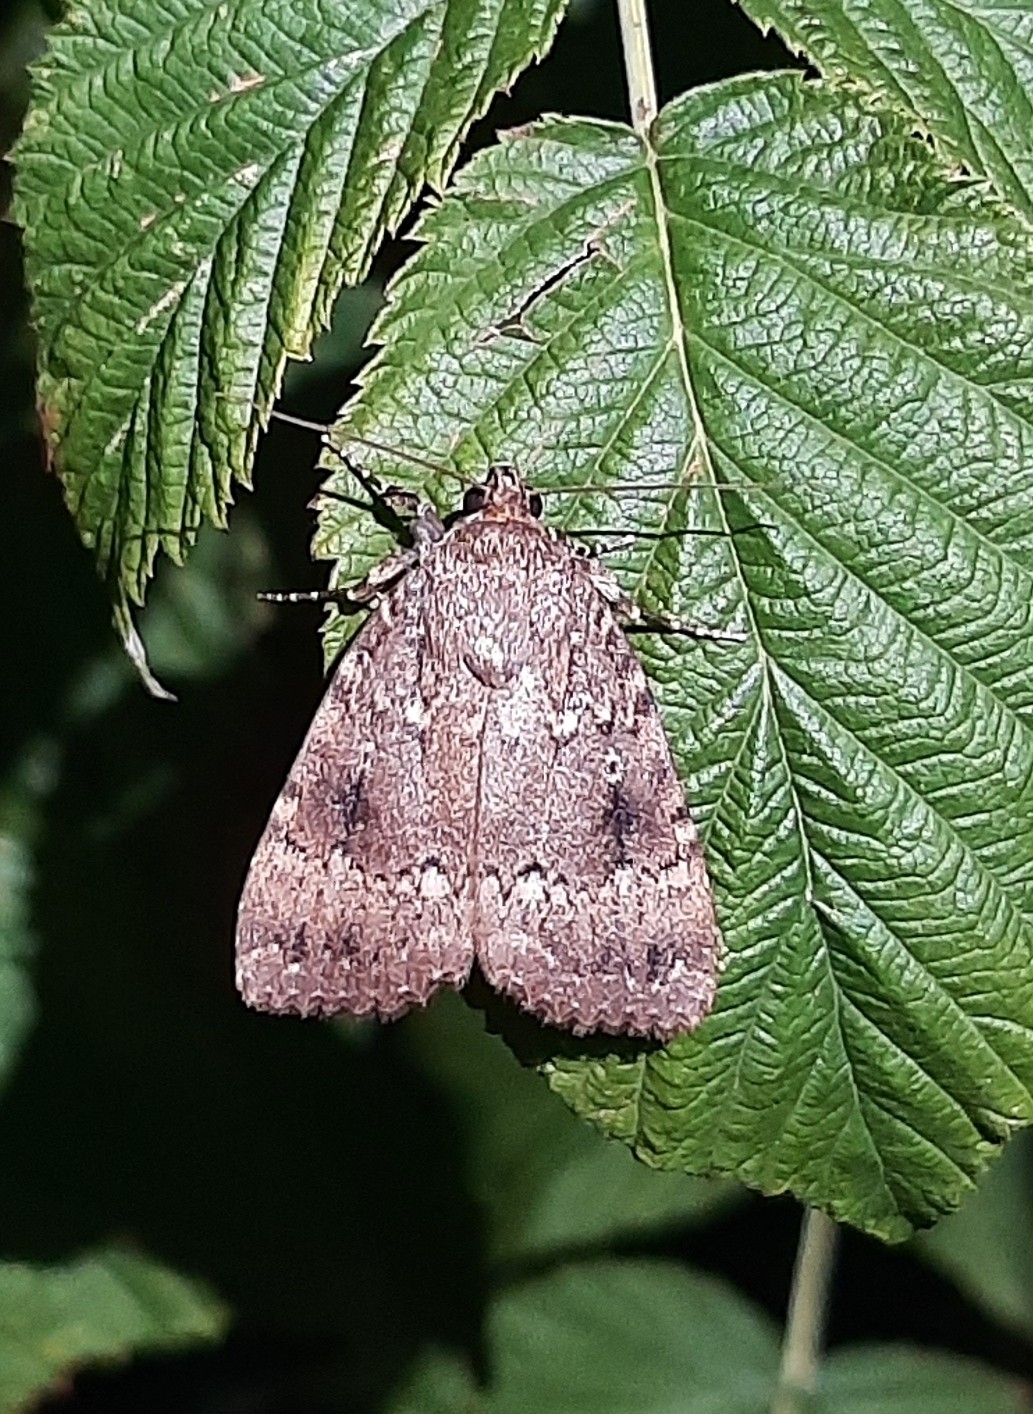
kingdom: Animalia
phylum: Arthropoda
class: Insecta
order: Lepidoptera
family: Noctuidae
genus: Amphipyra
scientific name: Amphipyra pyramidea
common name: Copper underwing
